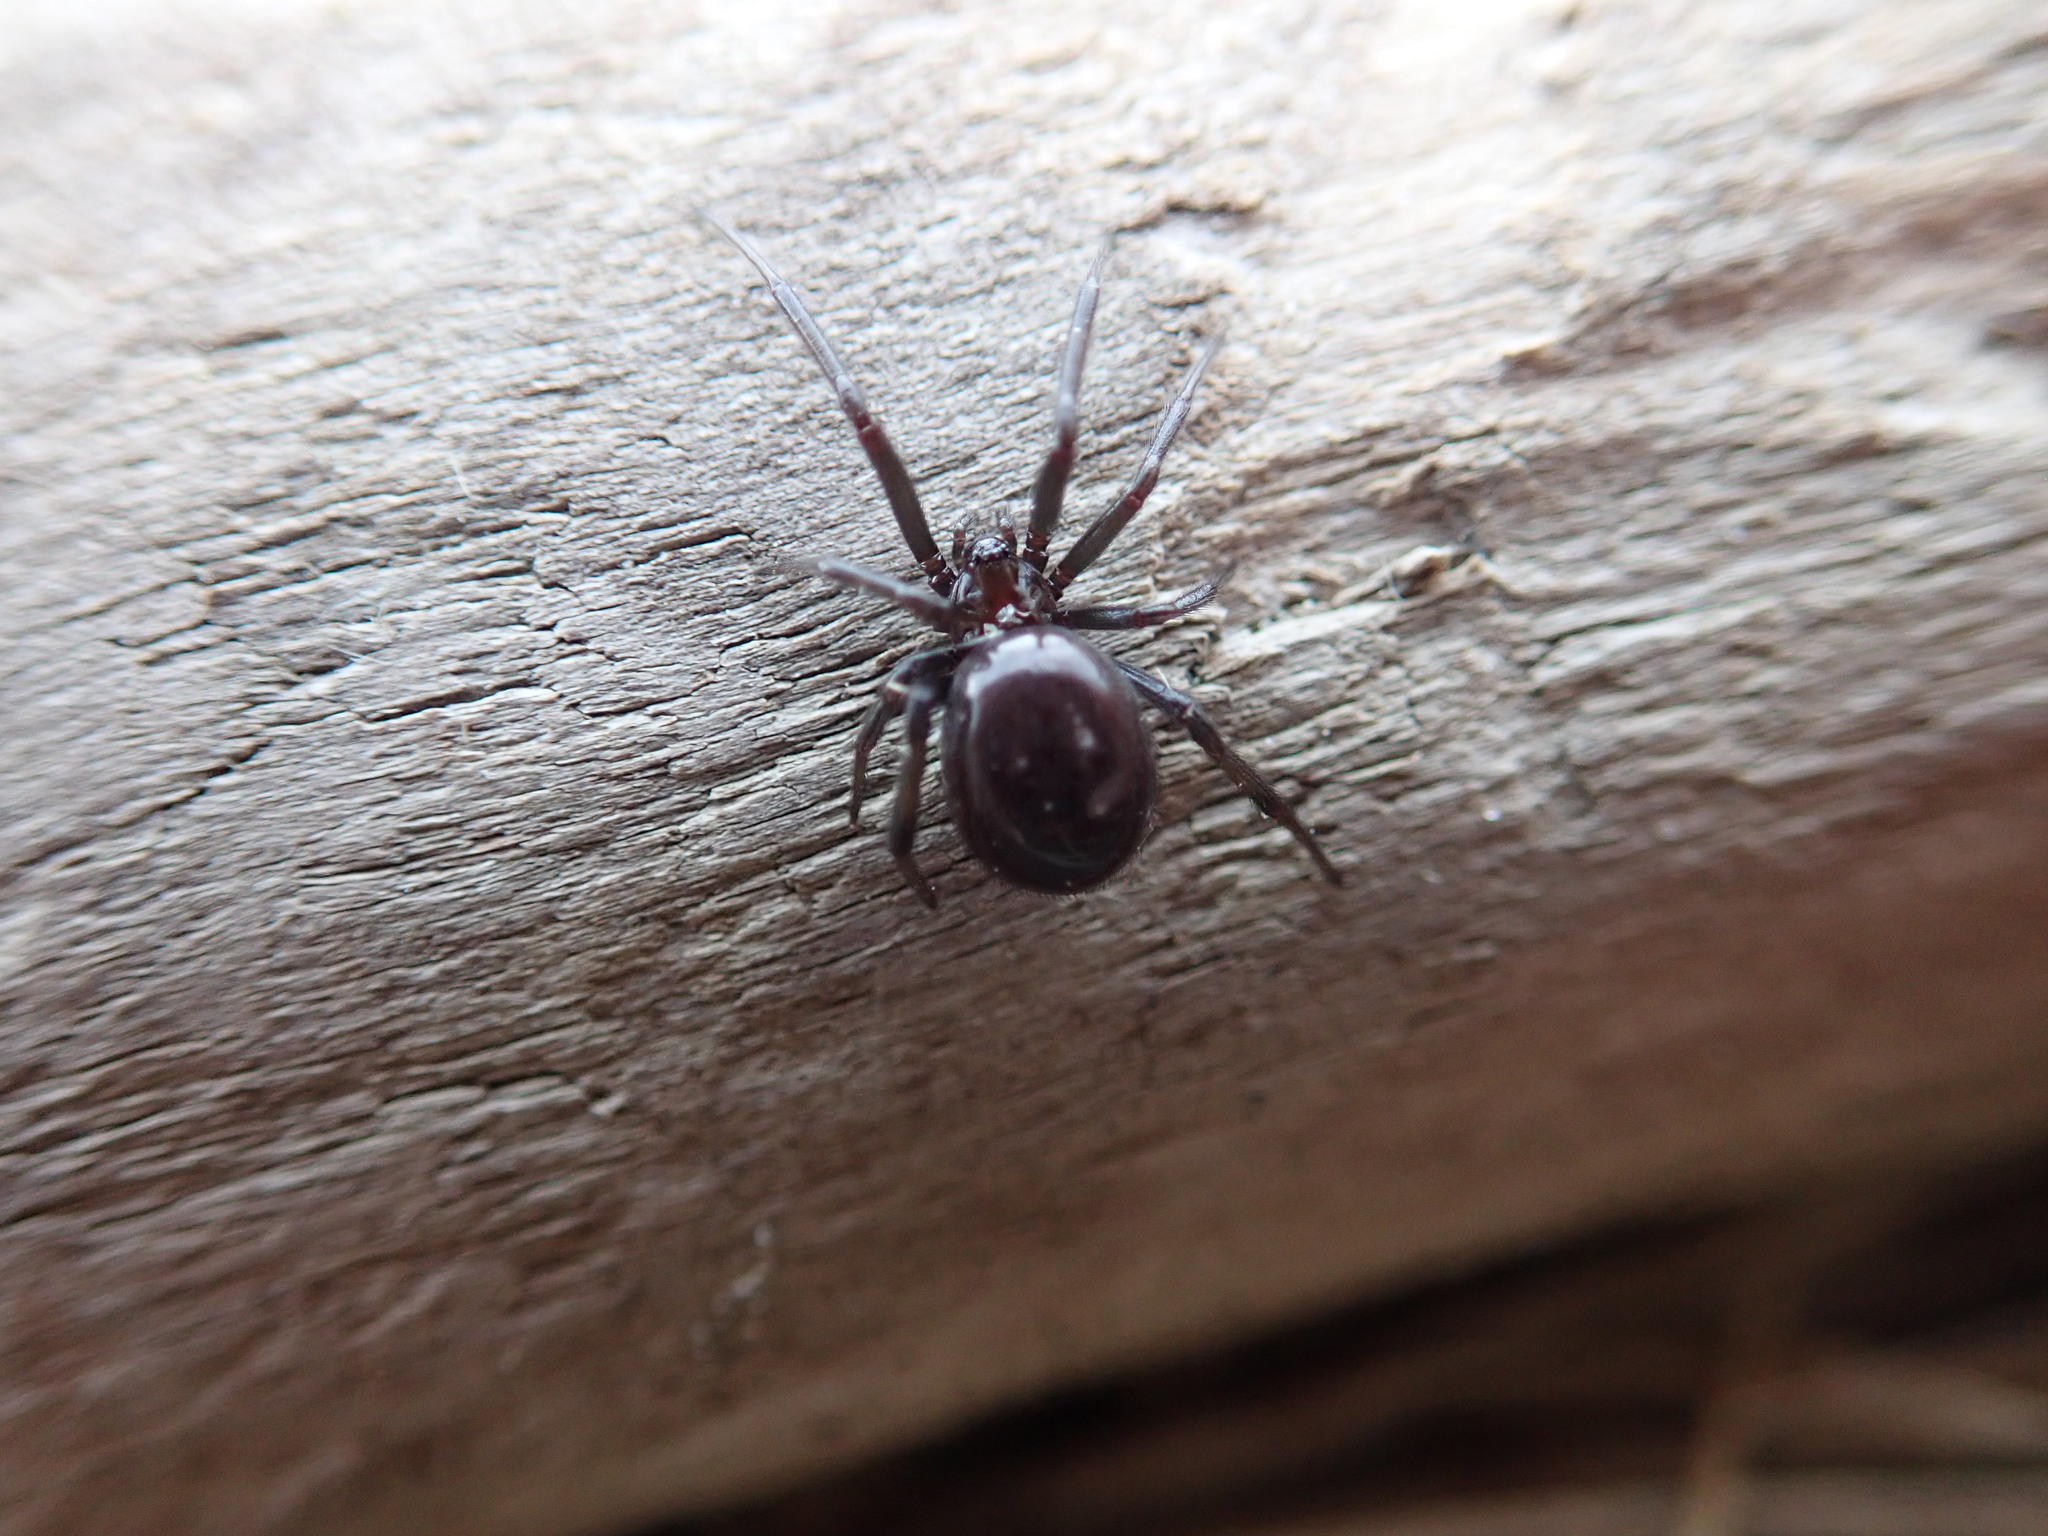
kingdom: Animalia
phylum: Arthropoda
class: Arachnida
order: Araneae
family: Theridiidae
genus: Steatoda
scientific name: Steatoda capensis
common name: Cobweb weaver
